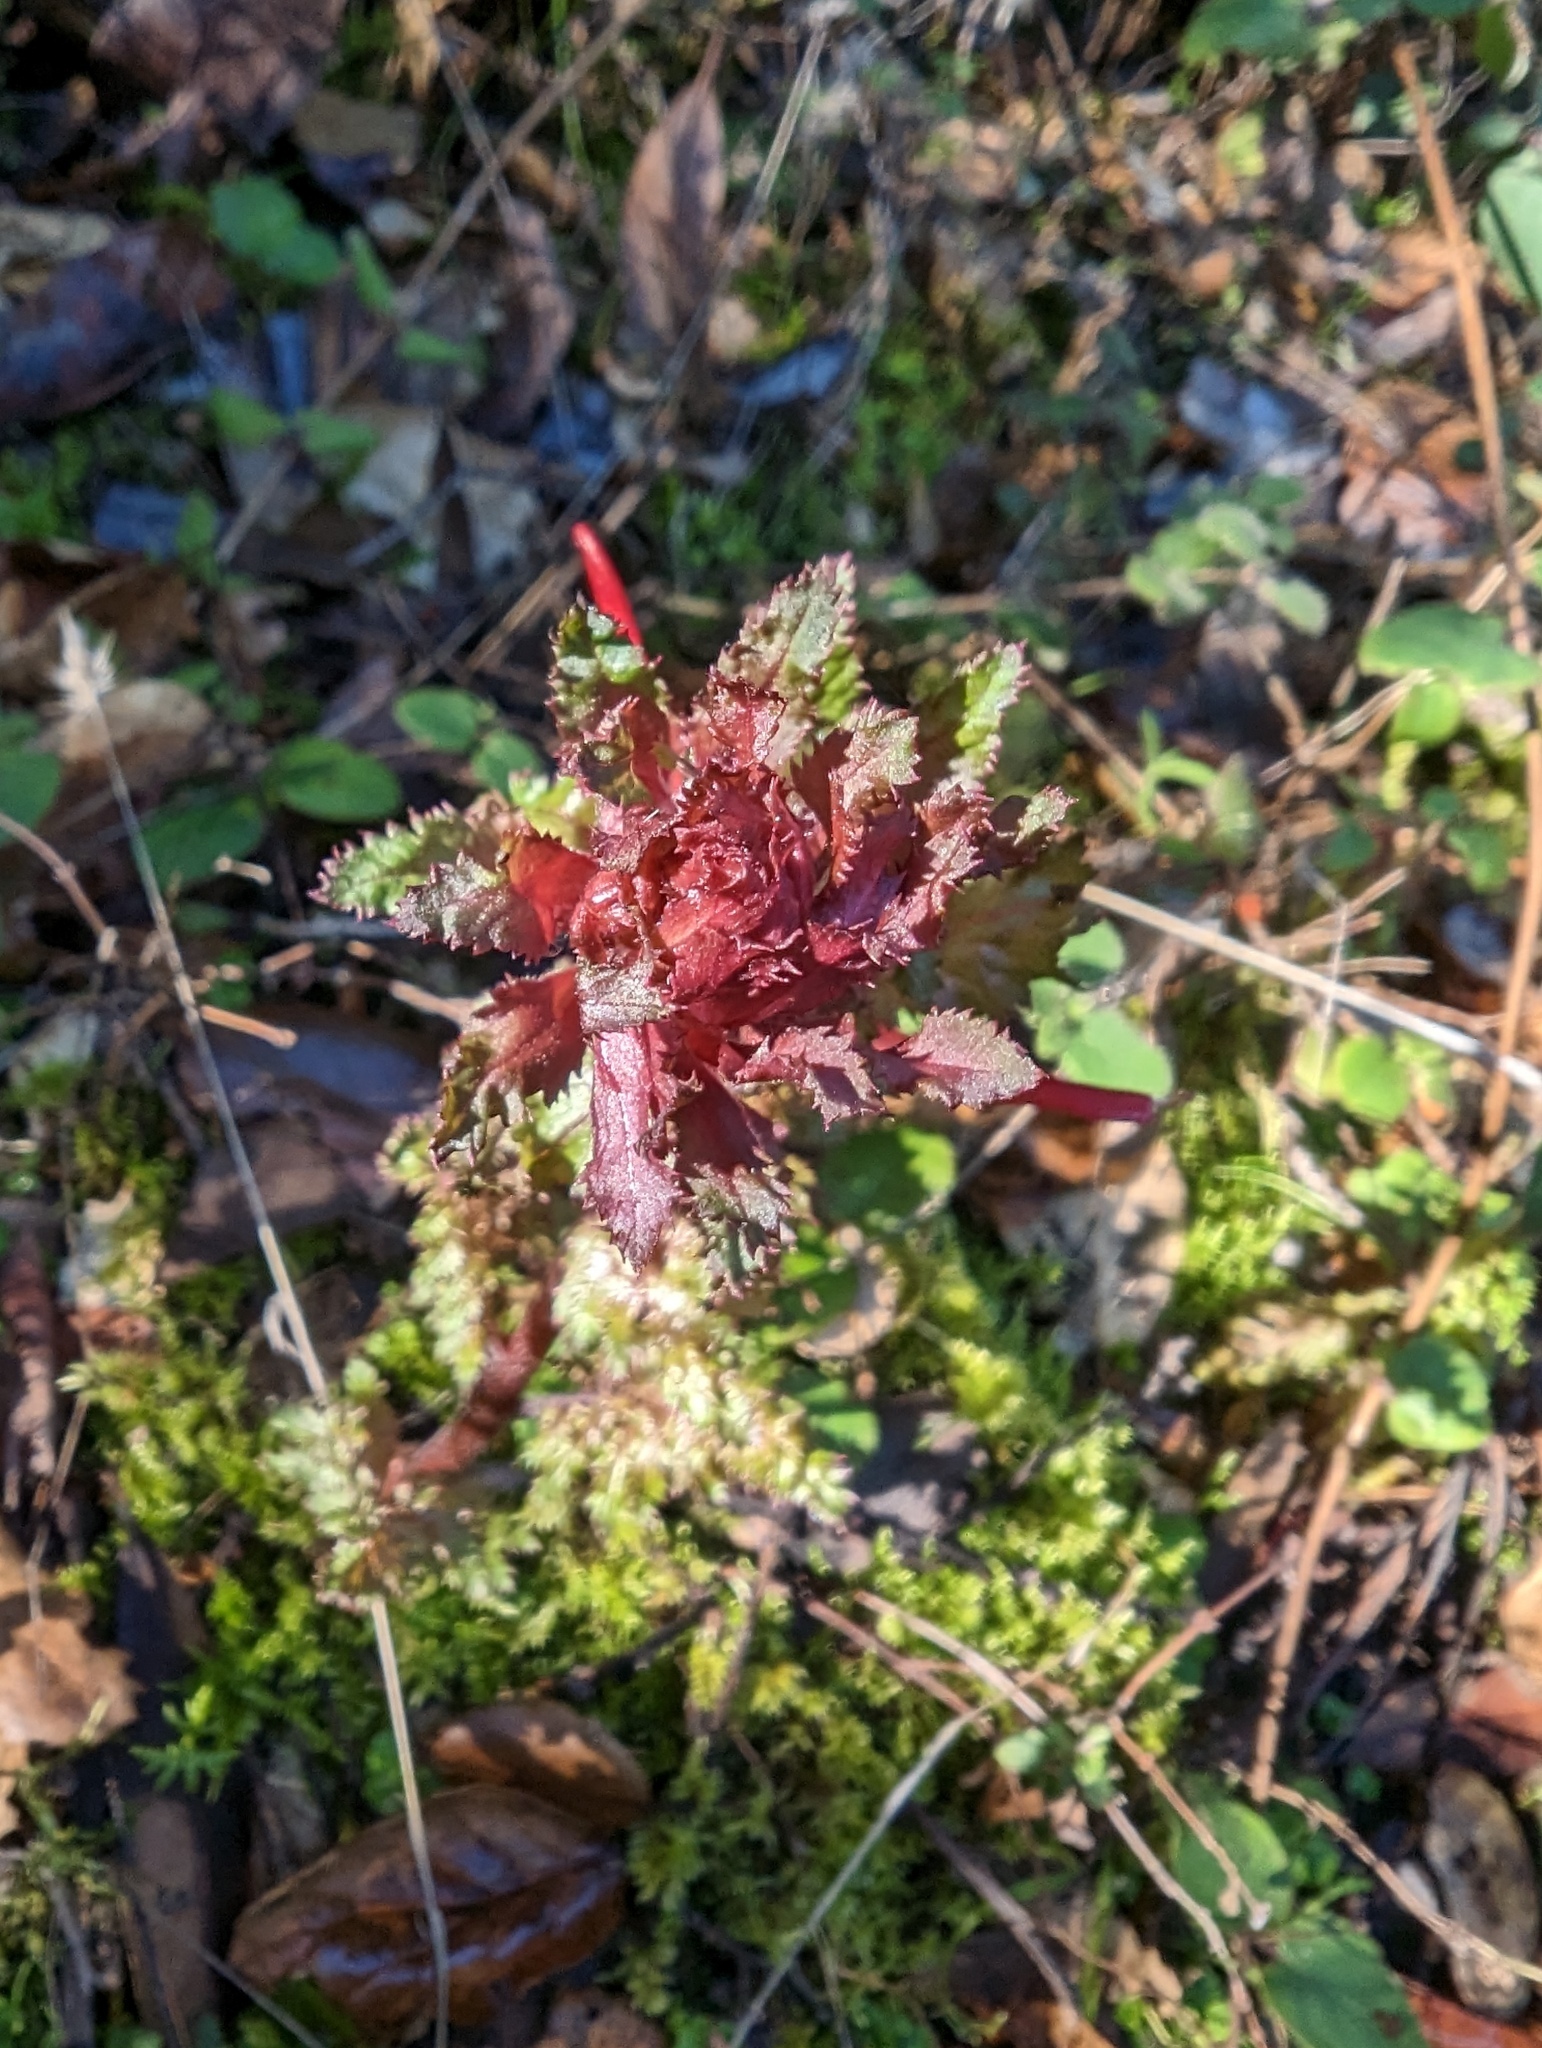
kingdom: Plantae
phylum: Tracheophyta
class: Magnoliopsida
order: Lamiales
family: Orobanchaceae
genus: Pedicularis
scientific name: Pedicularis densiflora
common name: Indian warrior
